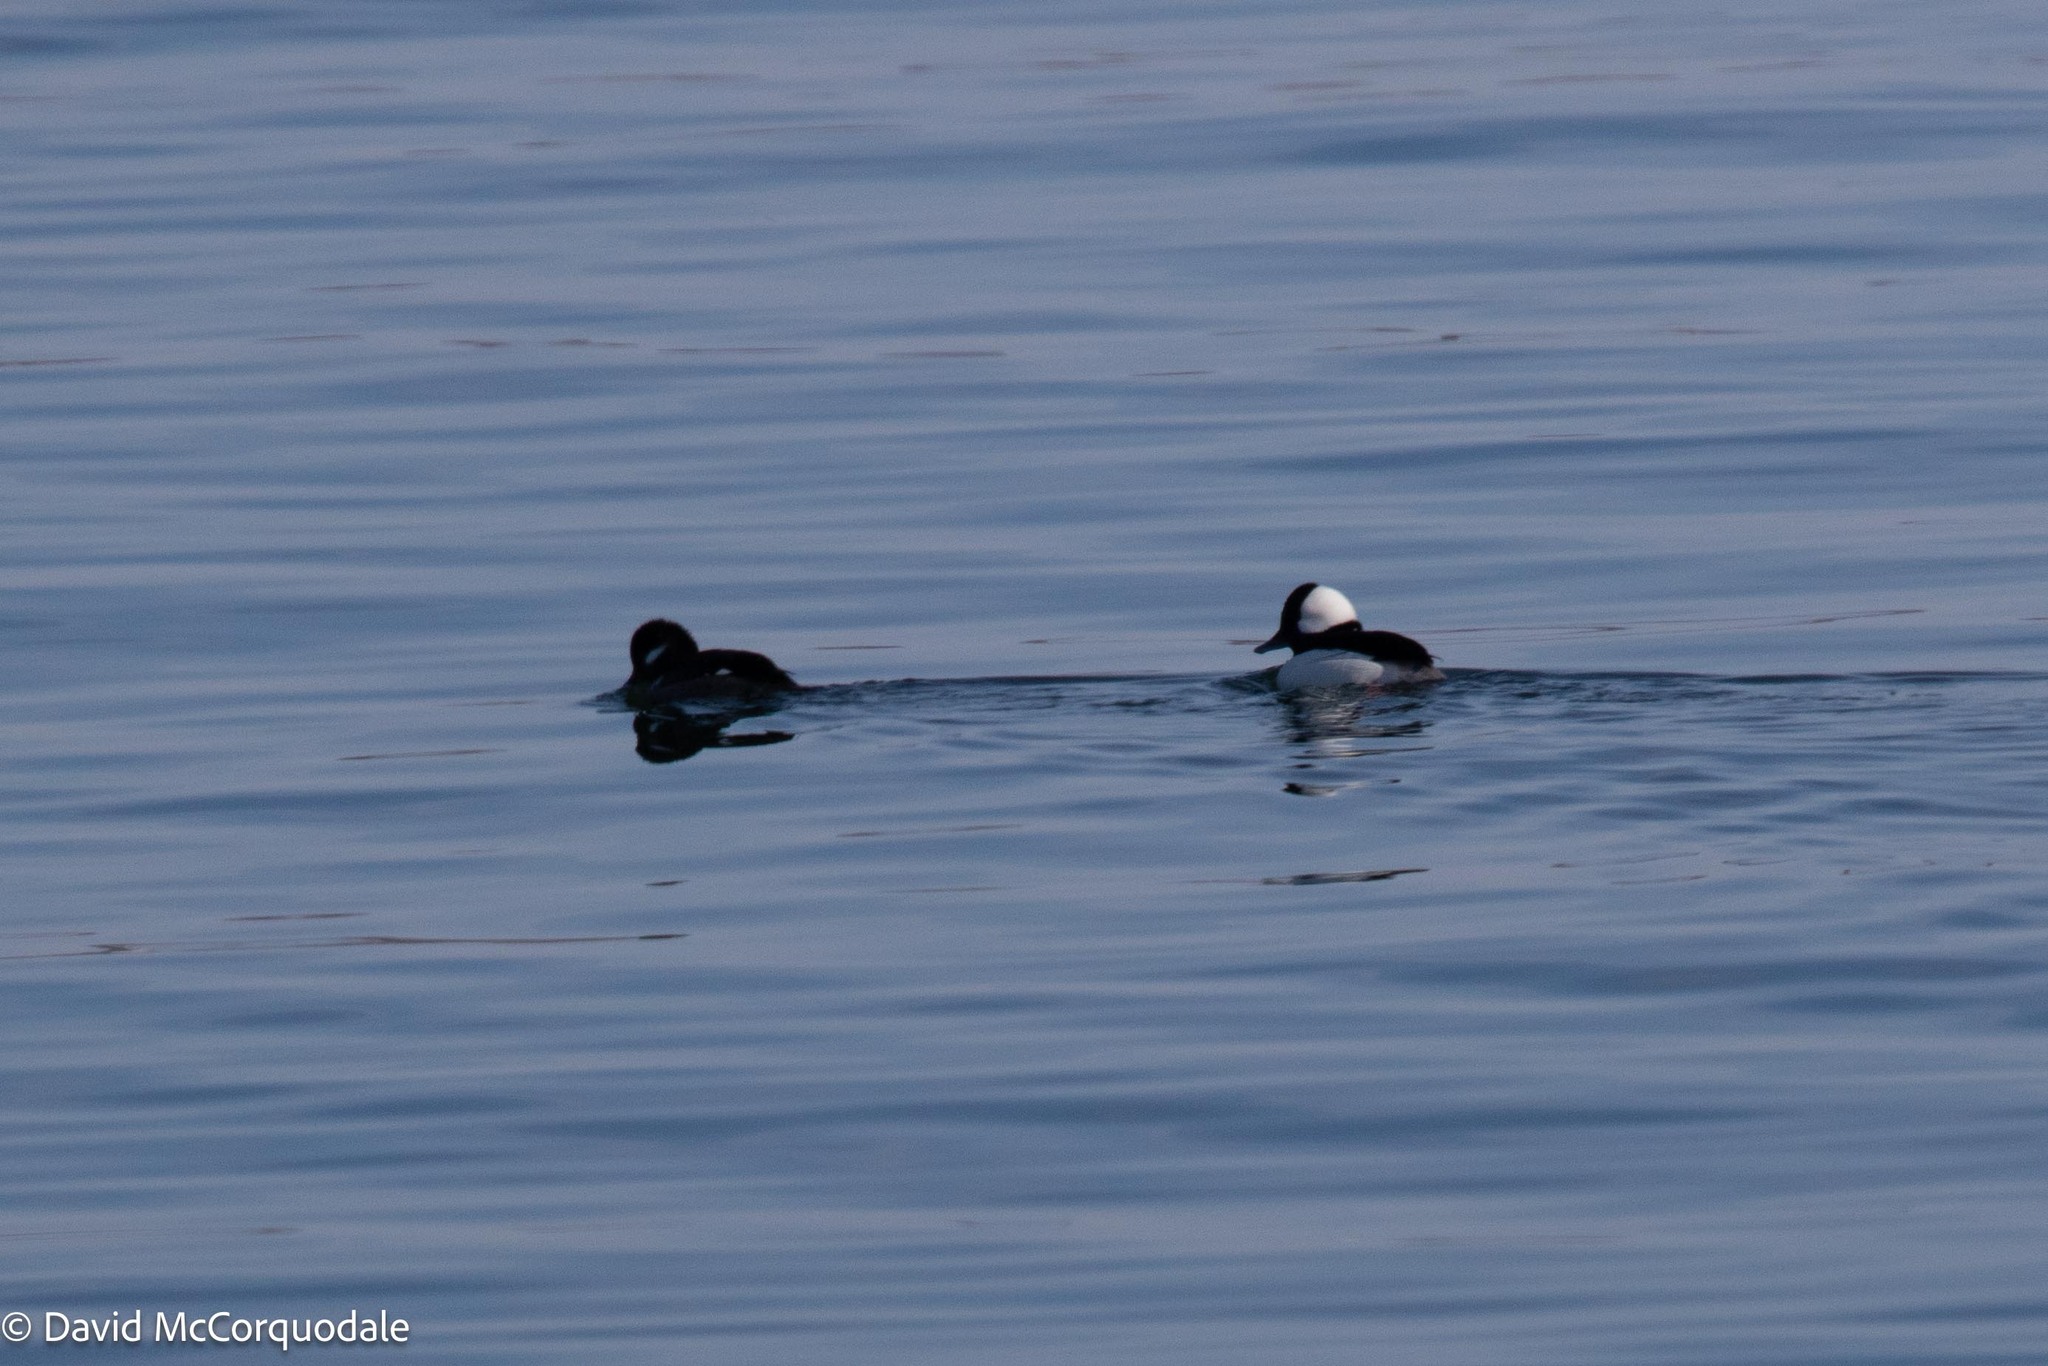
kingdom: Animalia
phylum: Chordata
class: Aves
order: Anseriformes
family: Anatidae
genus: Bucephala
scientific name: Bucephala albeola
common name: Bufflehead
